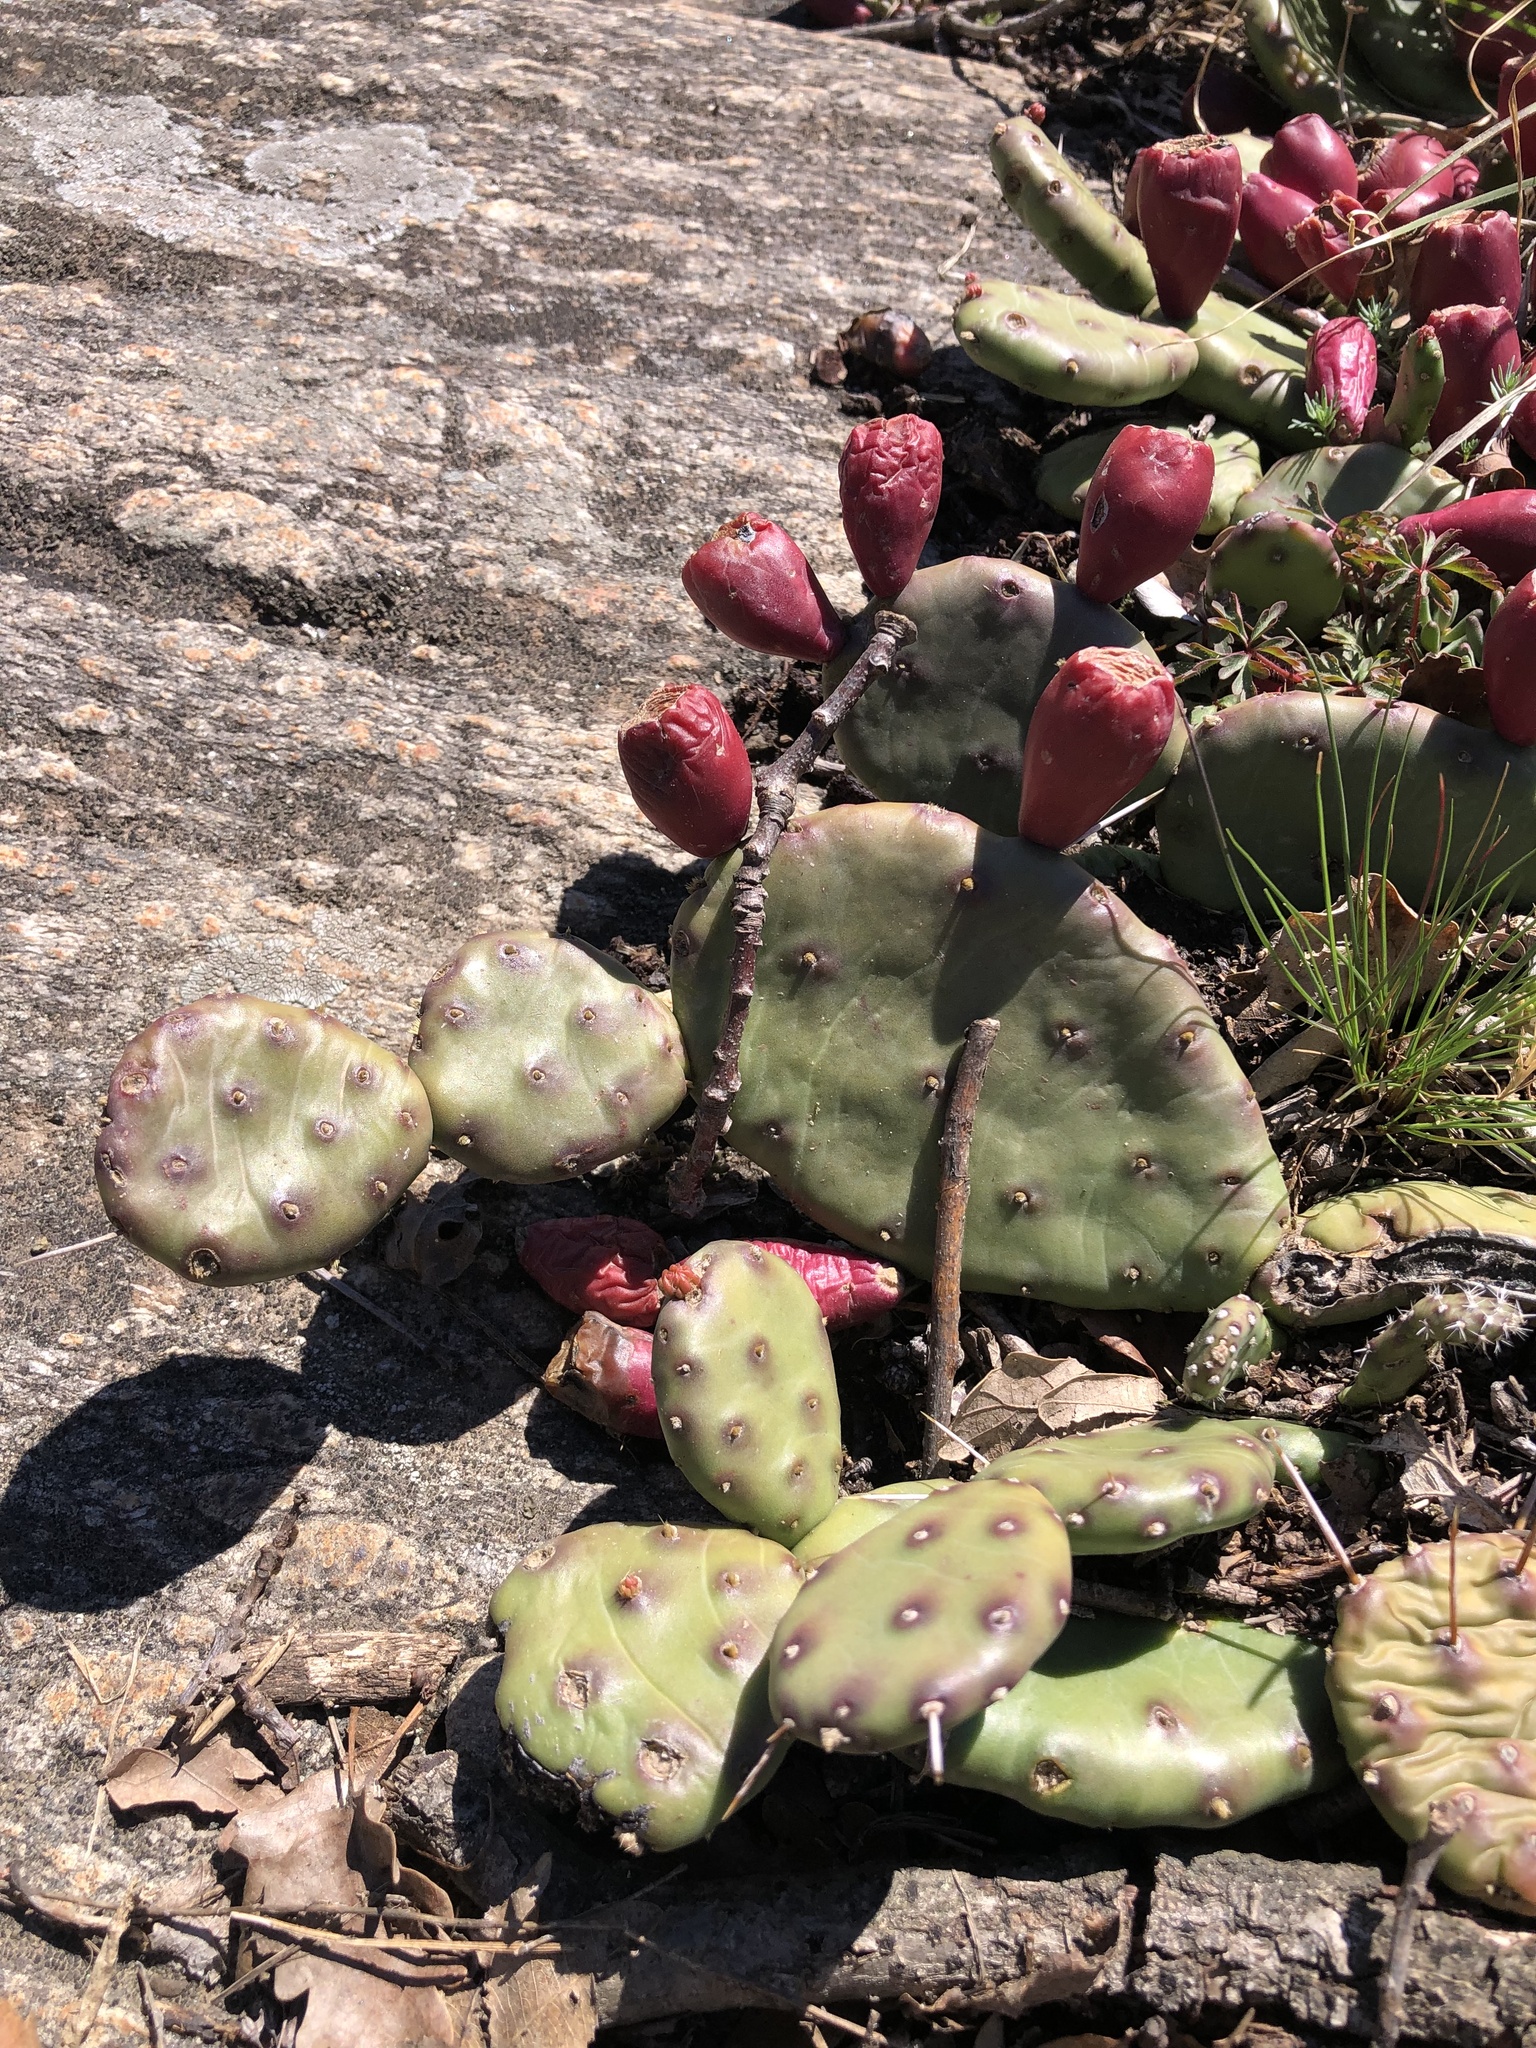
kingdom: Plantae
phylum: Tracheophyta
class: Magnoliopsida
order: Caryophyllales
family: Cactaceae
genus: Opuntia
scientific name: Opuntia humifusa
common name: Eastern prickly-pear
